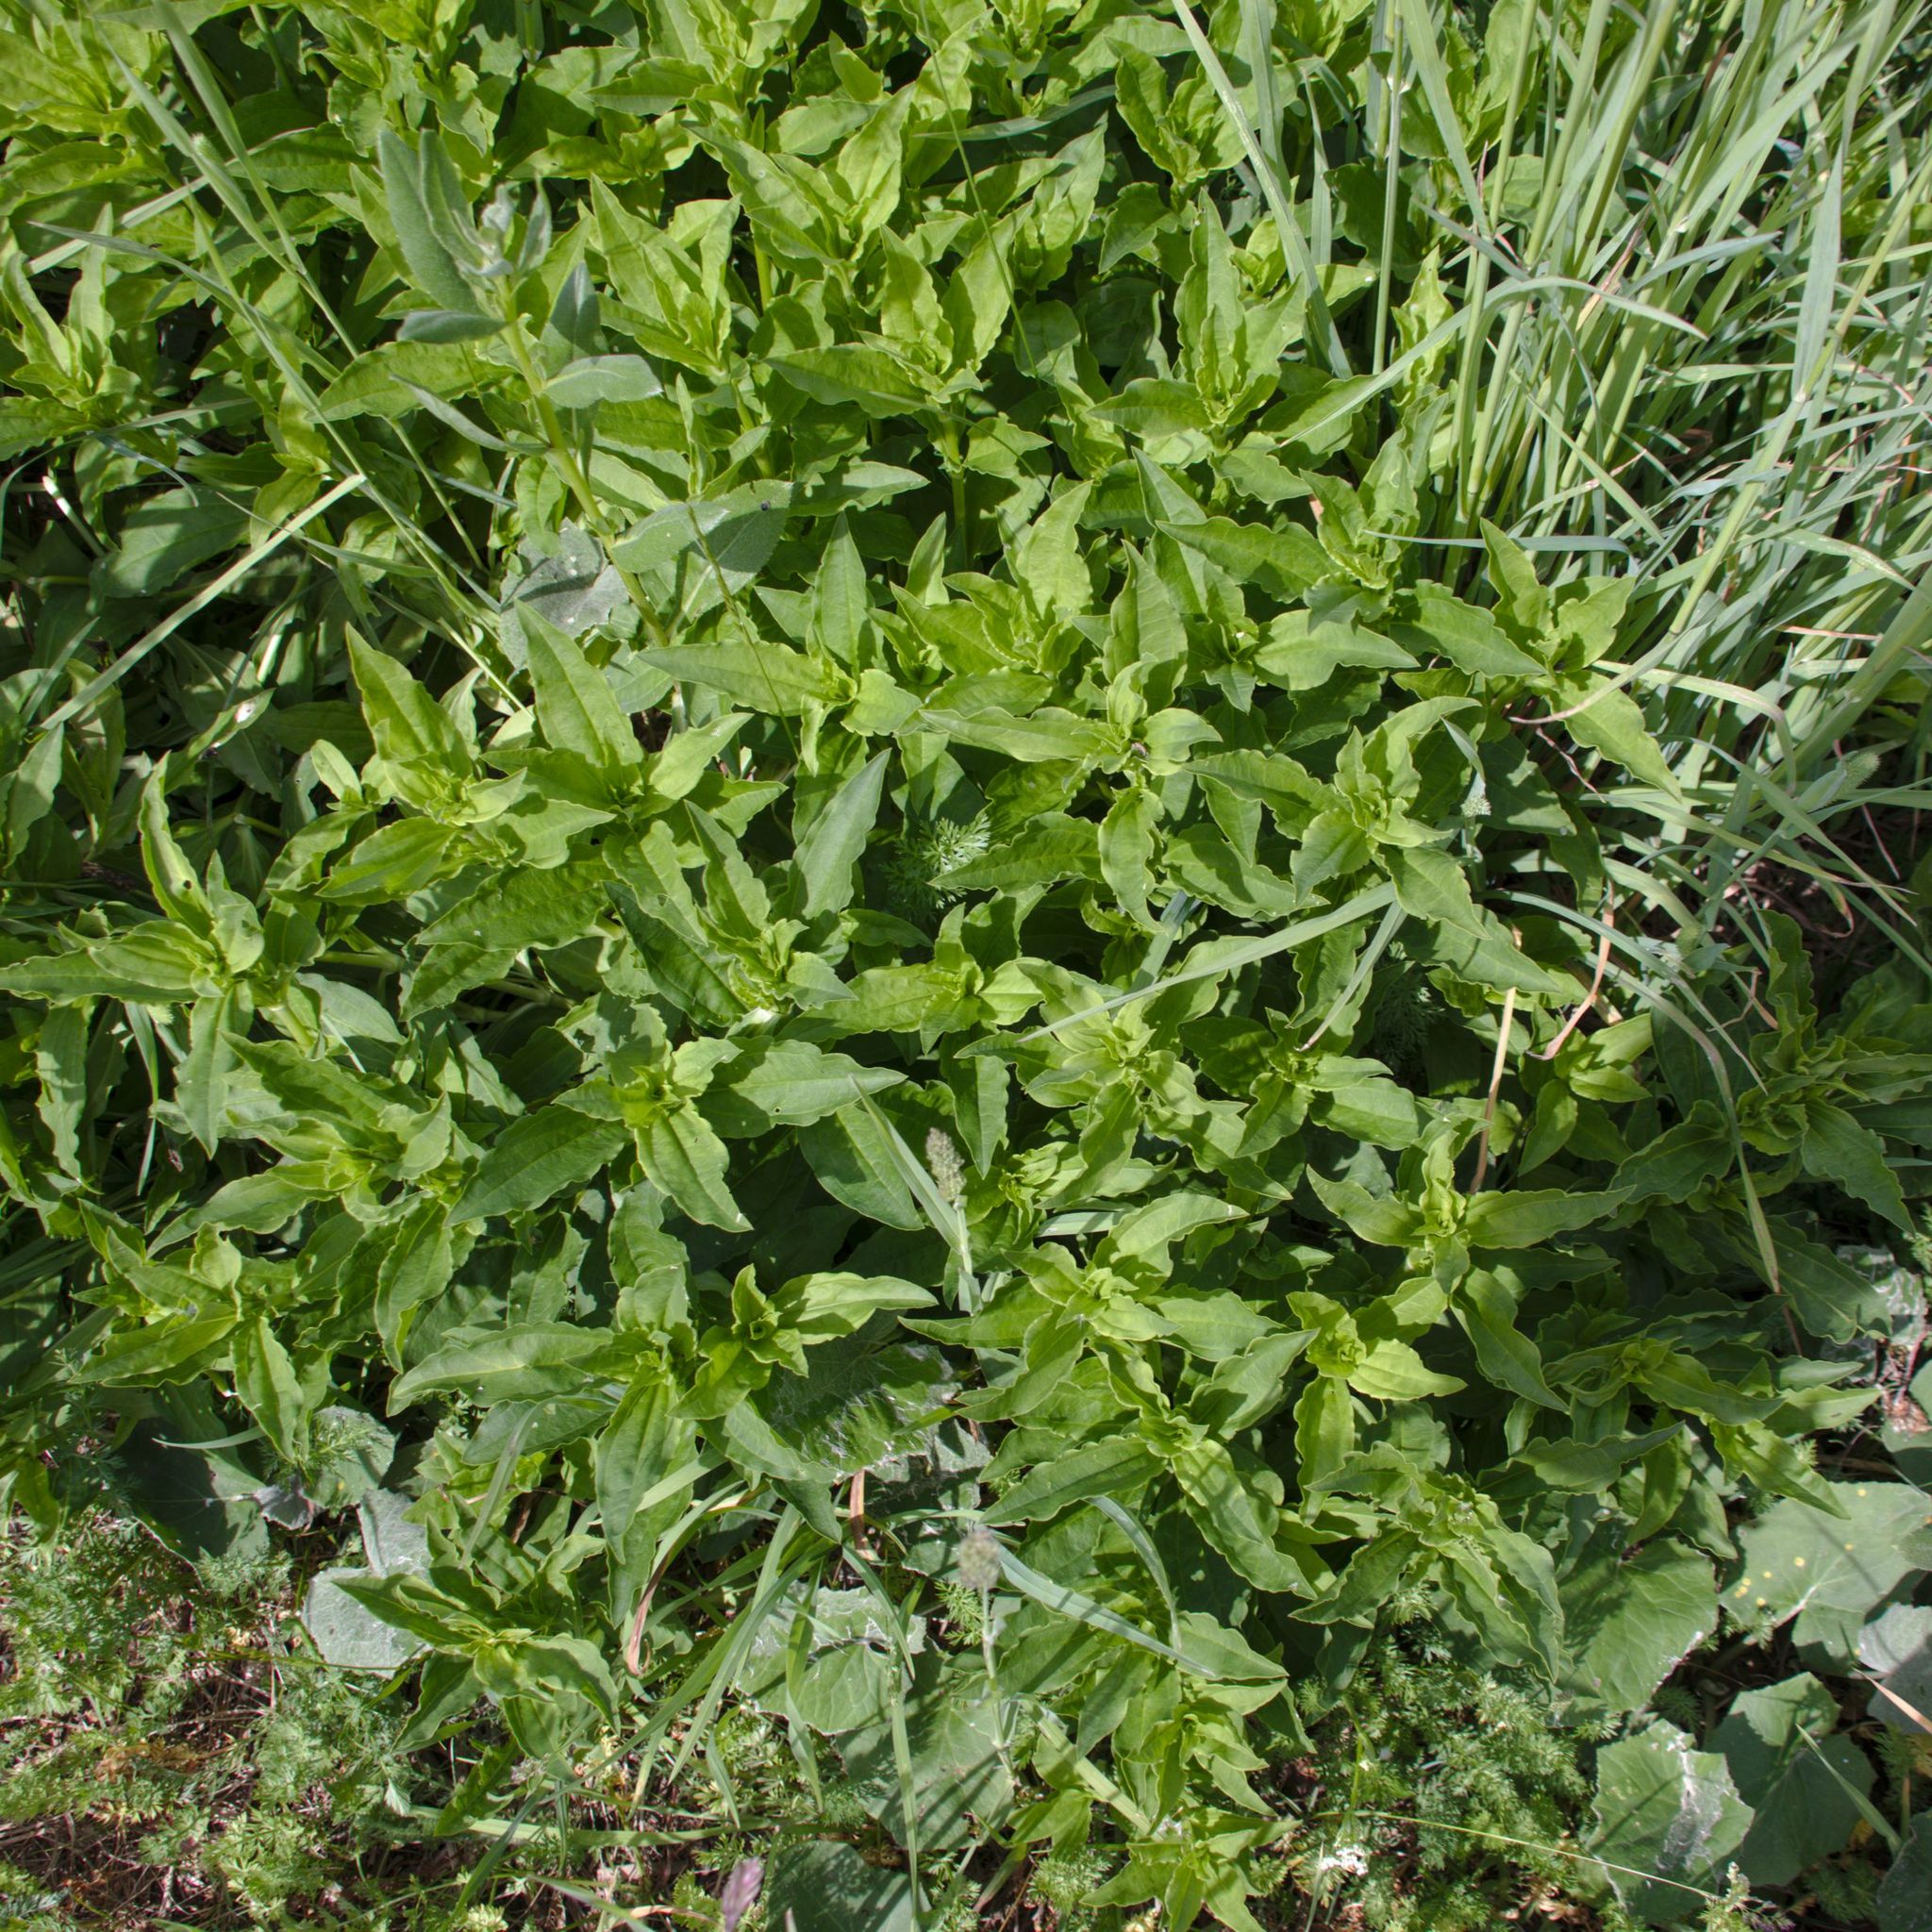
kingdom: Plantae
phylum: Tracheophyta
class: Magnoliopsida
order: Caryophyllales
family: Caryophyllaceae
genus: Saponaria
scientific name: Saponaria officinalis
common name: Soapwort
